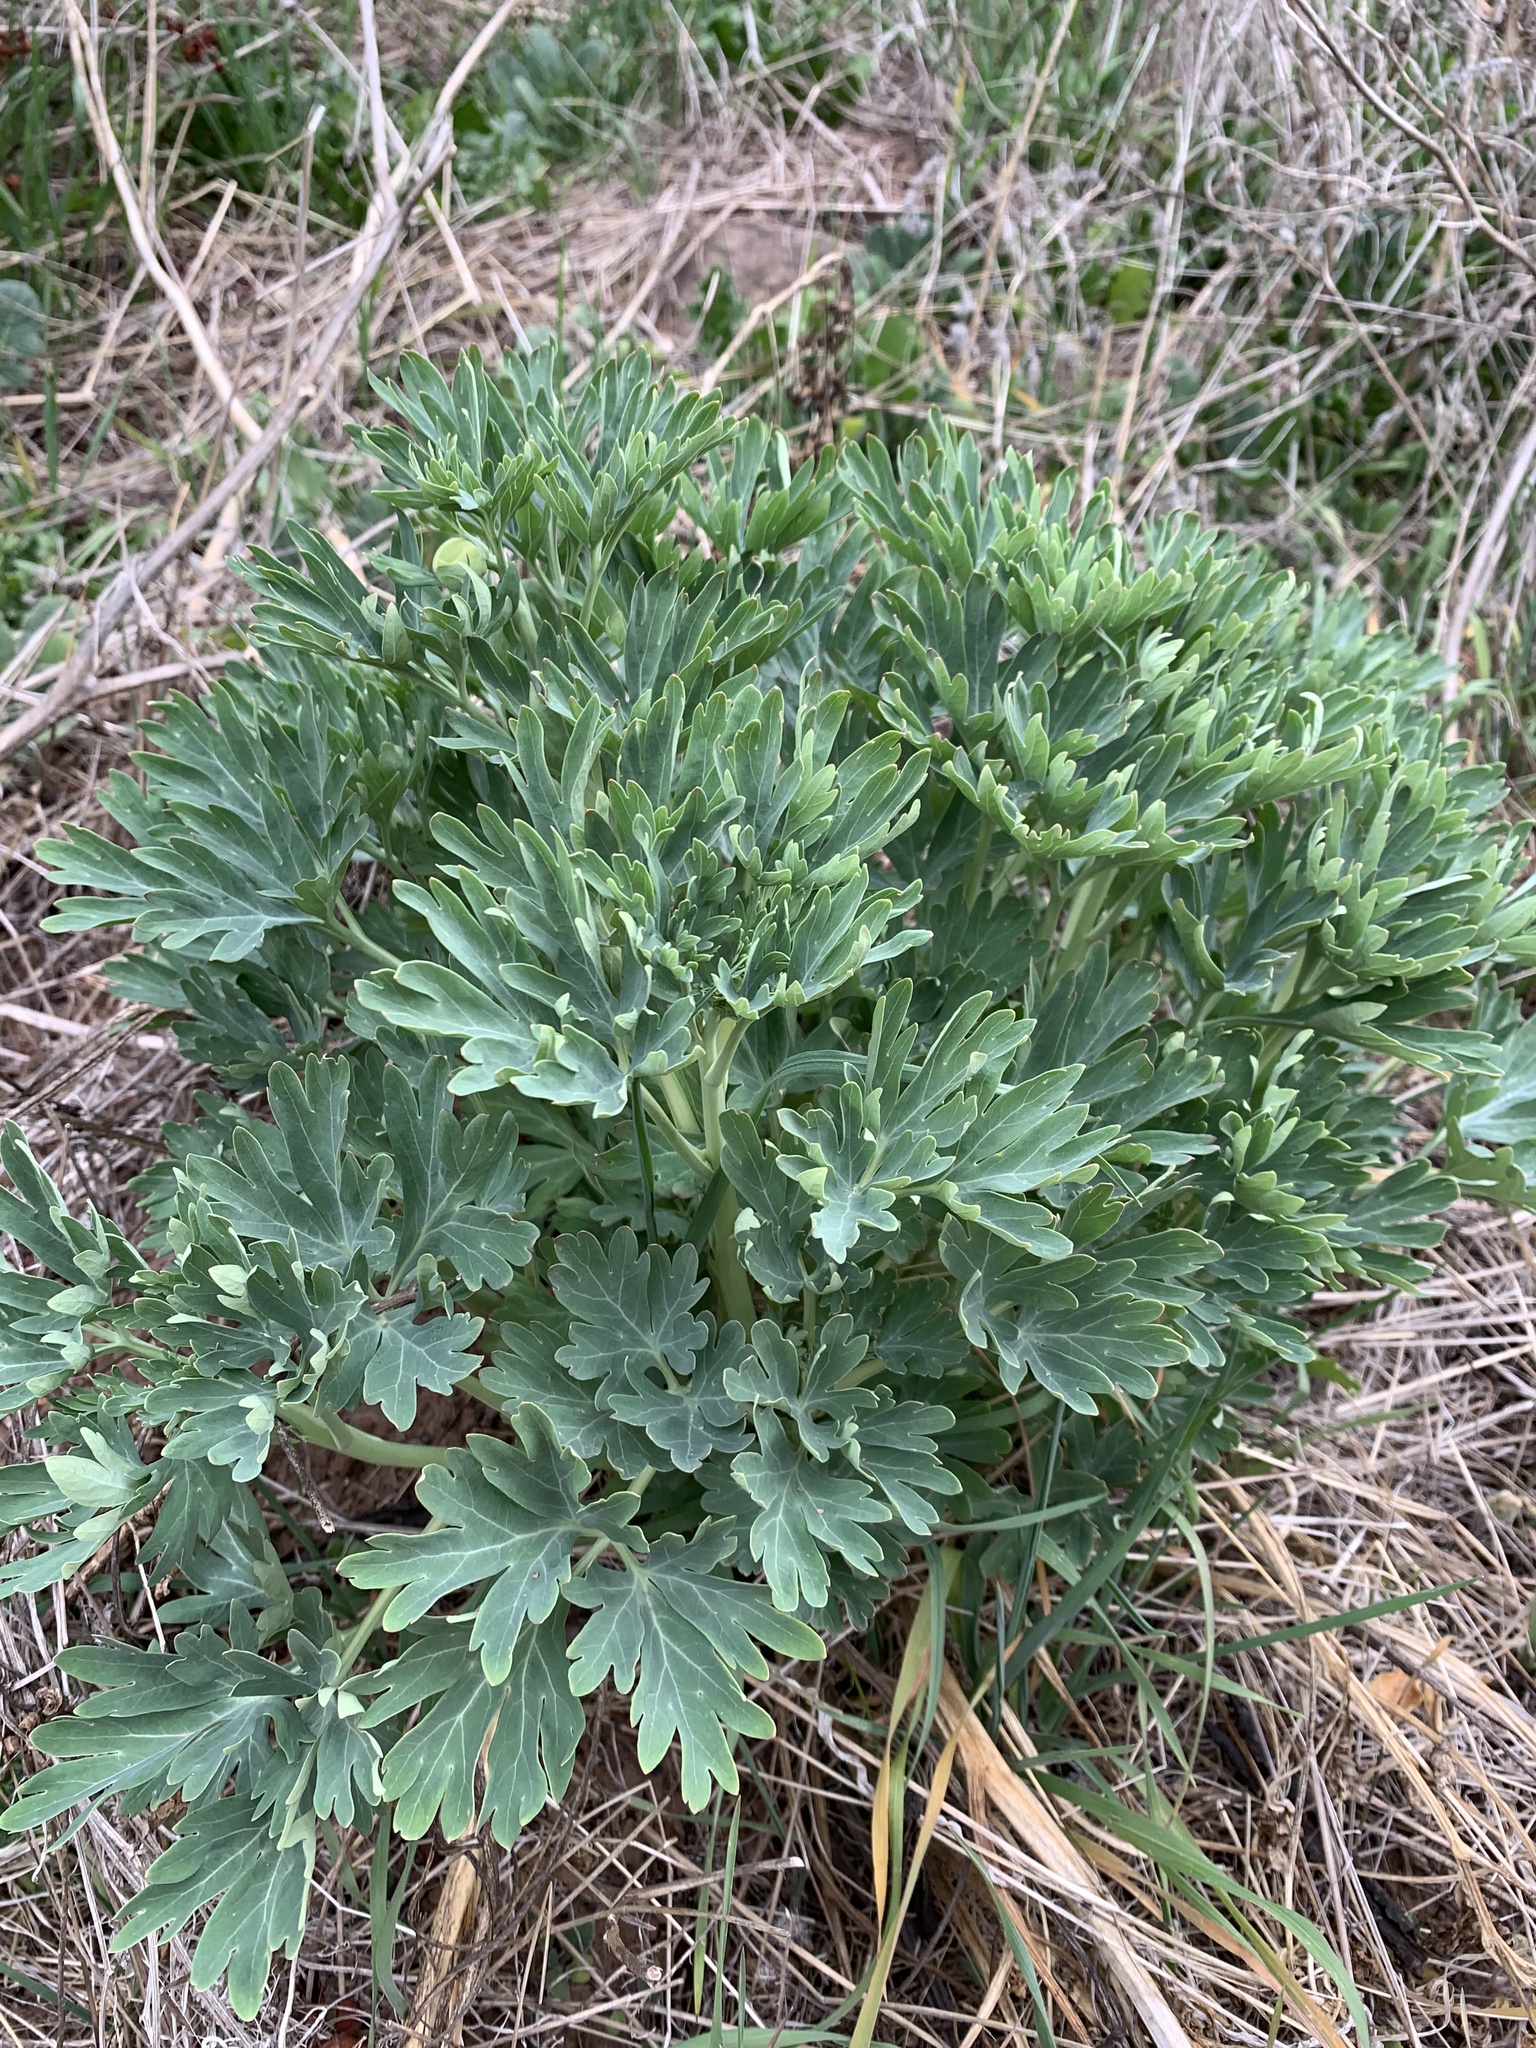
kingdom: Plantae
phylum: Tracheophyta
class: Magnoliopsida
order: Saxifragales
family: Paeoniaceae
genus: Paeonia
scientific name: Paeonia californica
